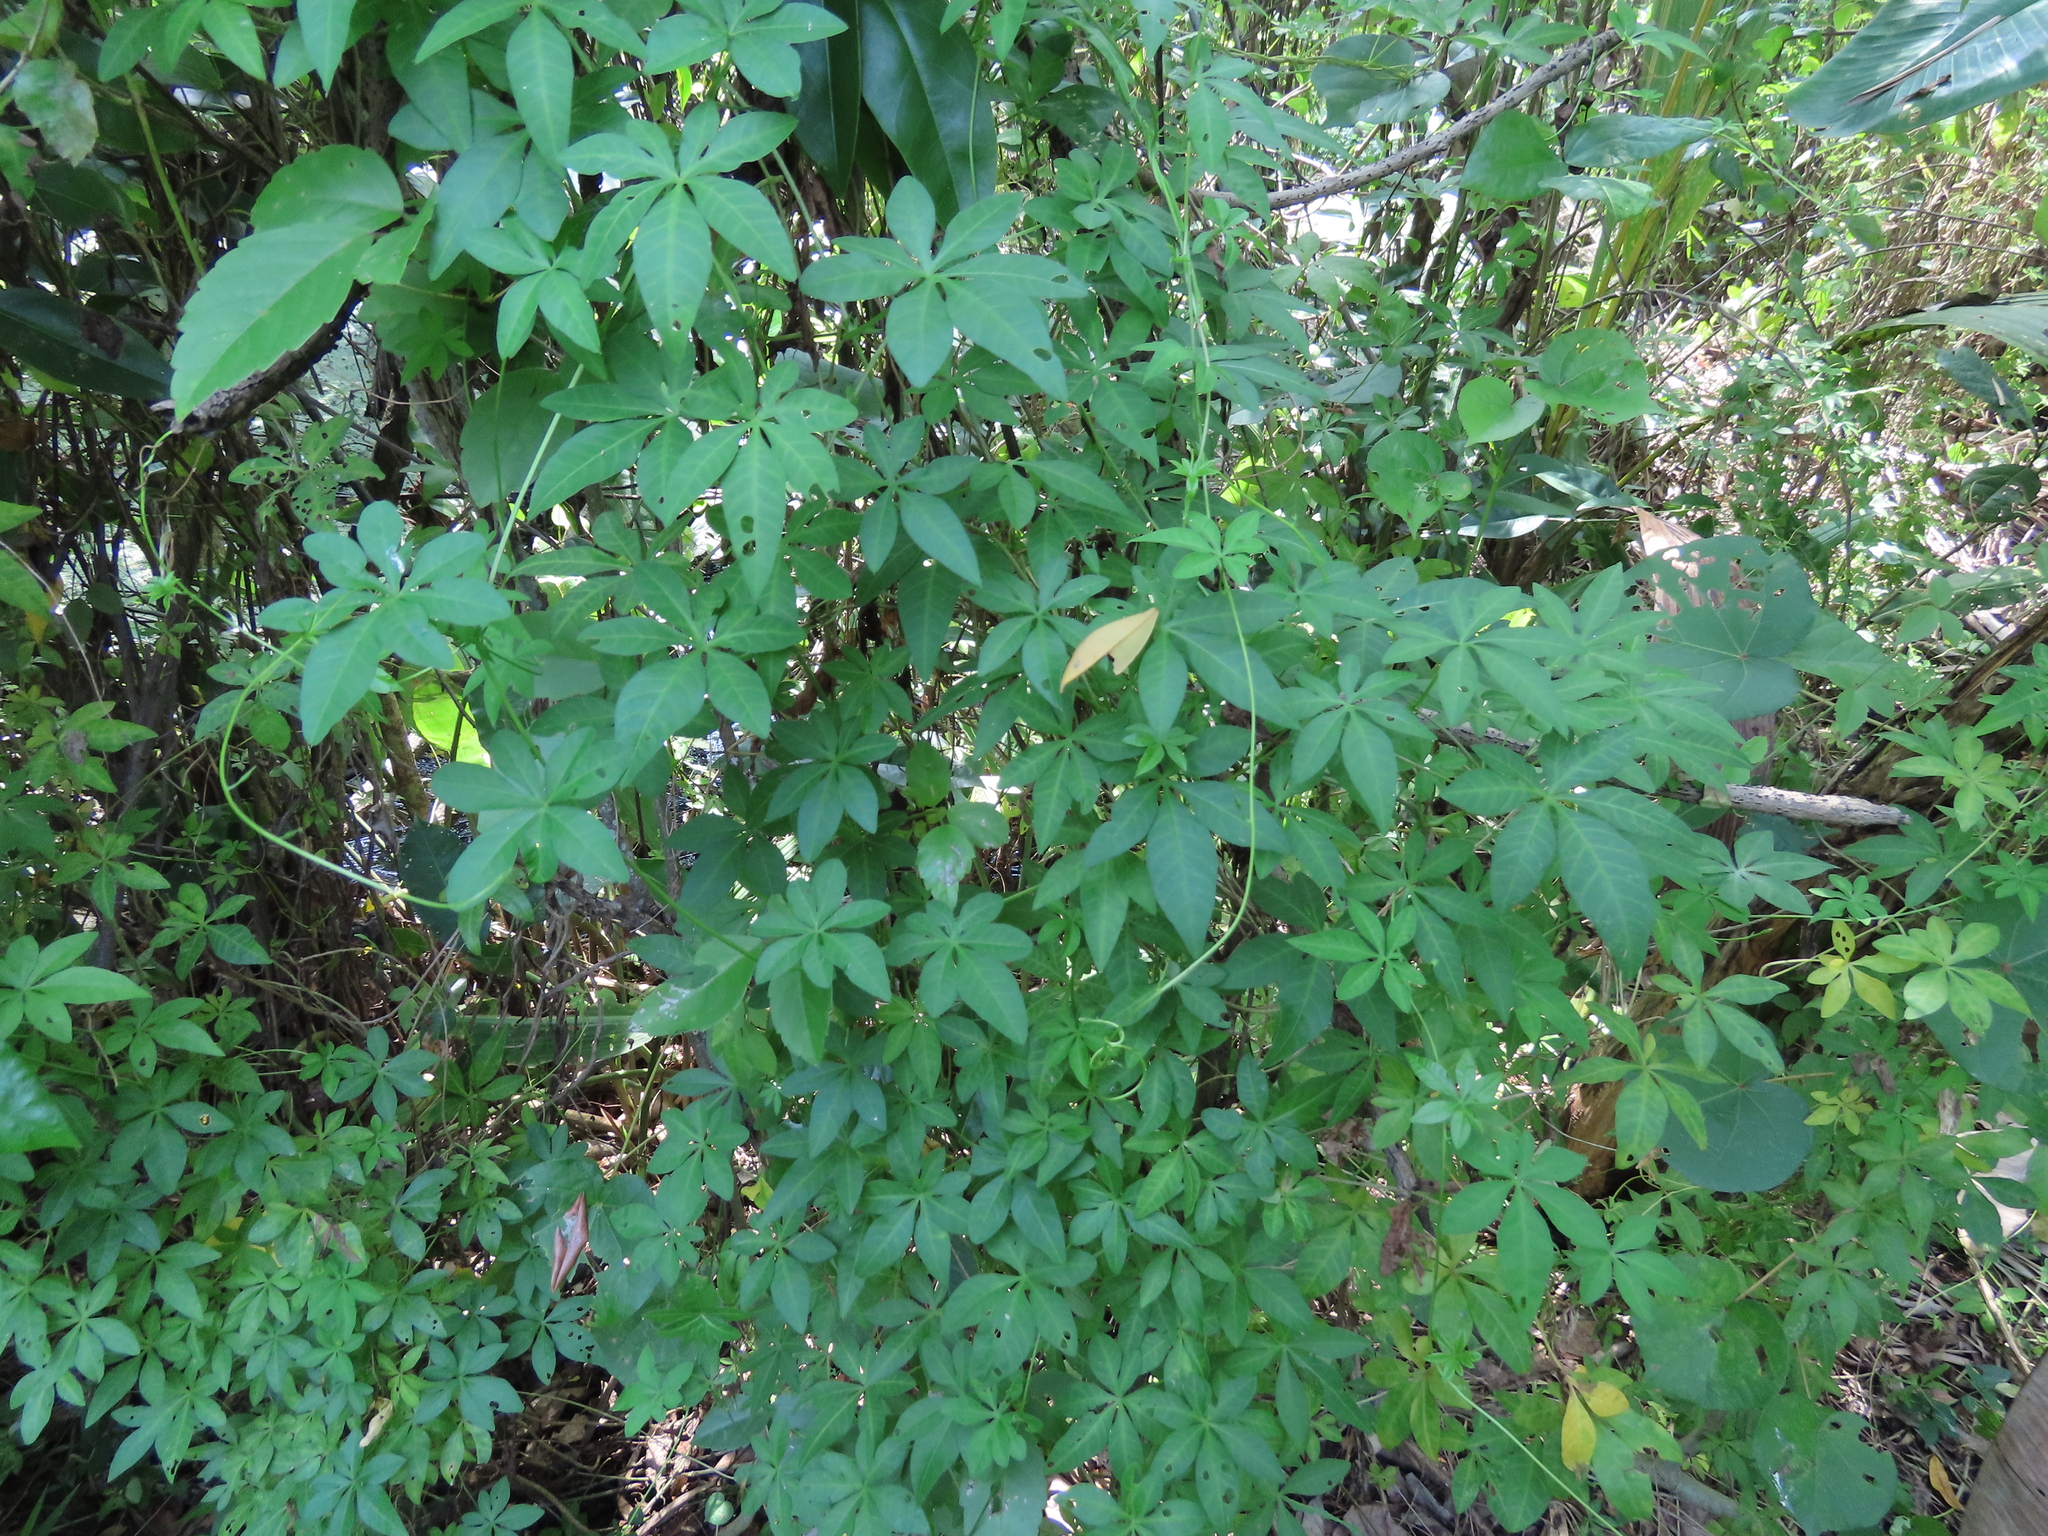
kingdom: Plantae
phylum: Tracheophyta
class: Magnoliopsida
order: Solanales
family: Convolvulaceae
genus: Ipomoea
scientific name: Ipomoea cairica
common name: Mile a minute vine
